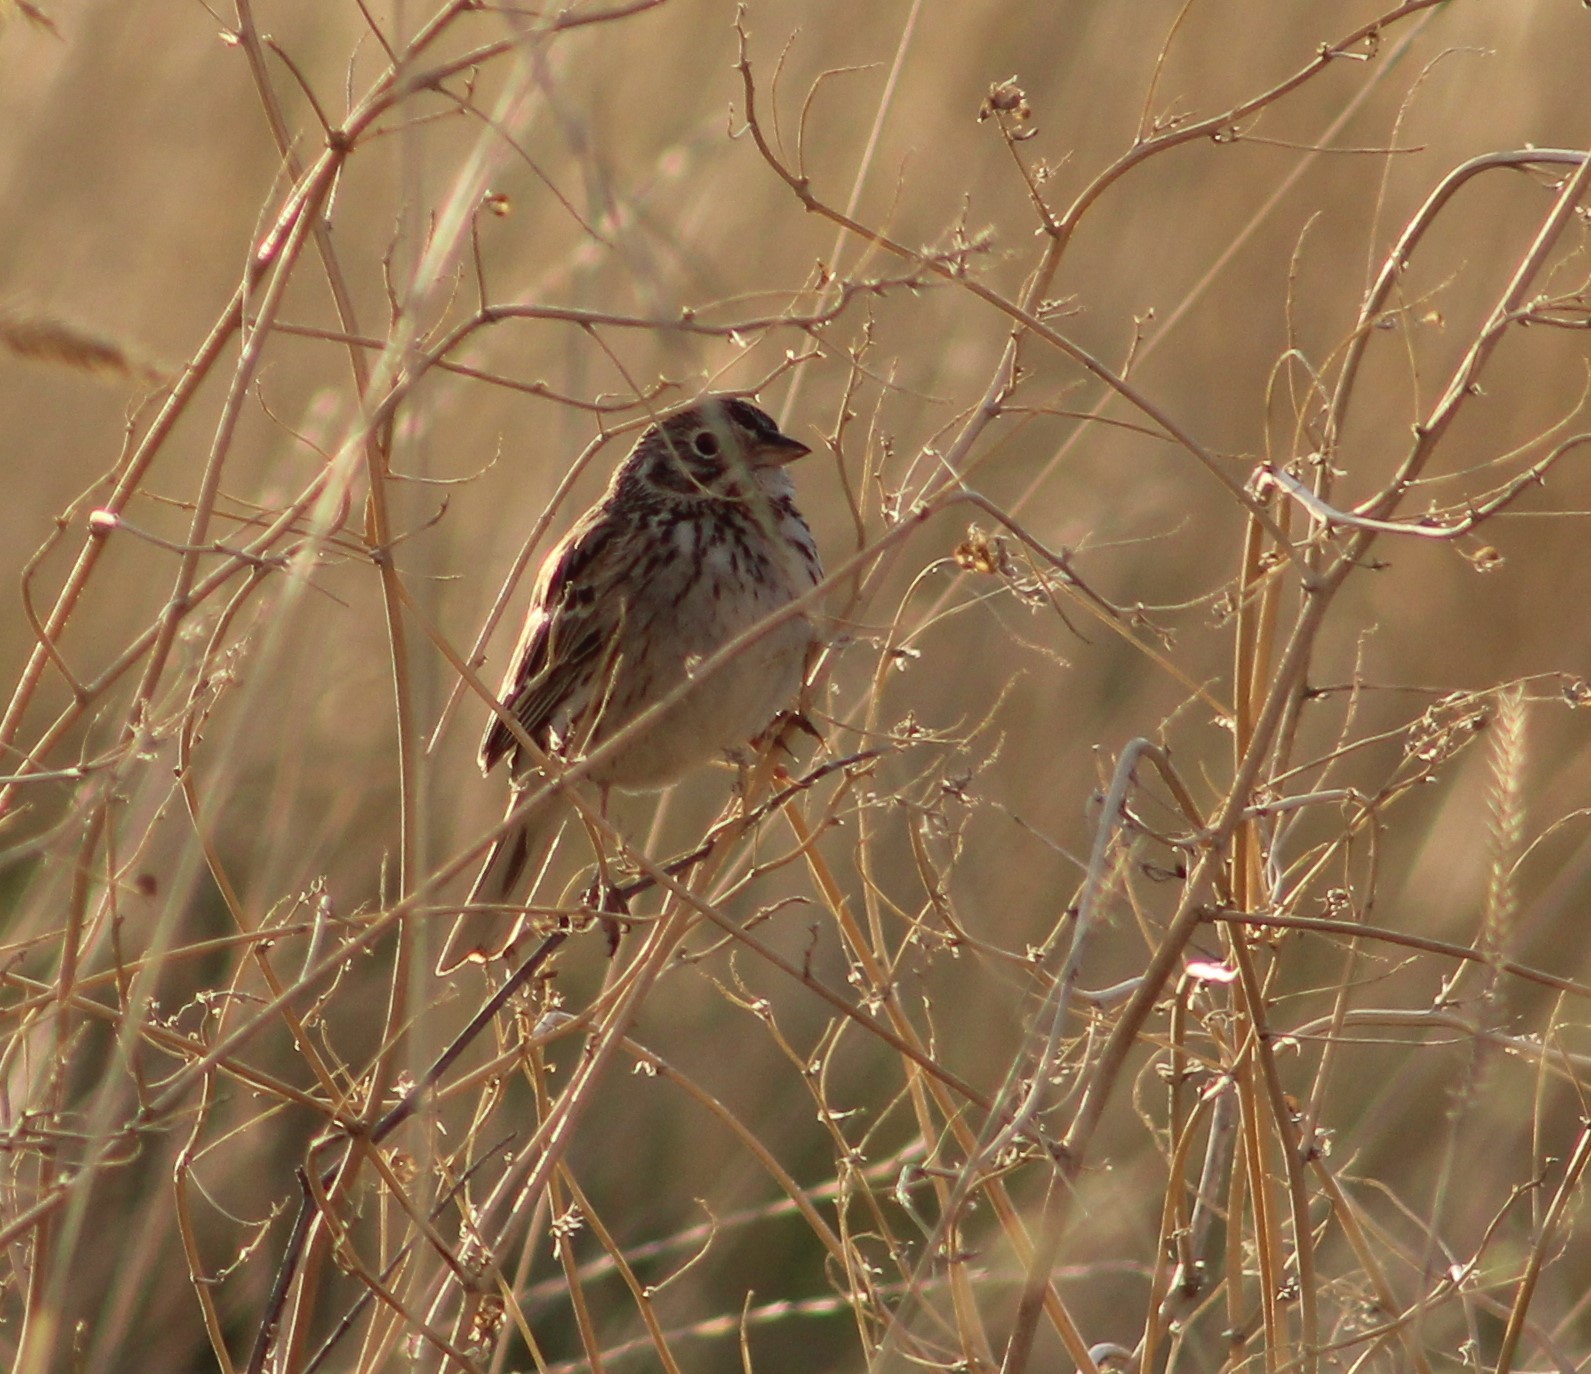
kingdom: Animalia
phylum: Chordata
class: Aves
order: Passeriformes
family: Passerellidae
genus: Pooecetes
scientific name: Pooecetes gramineus
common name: Vesper sparrow
